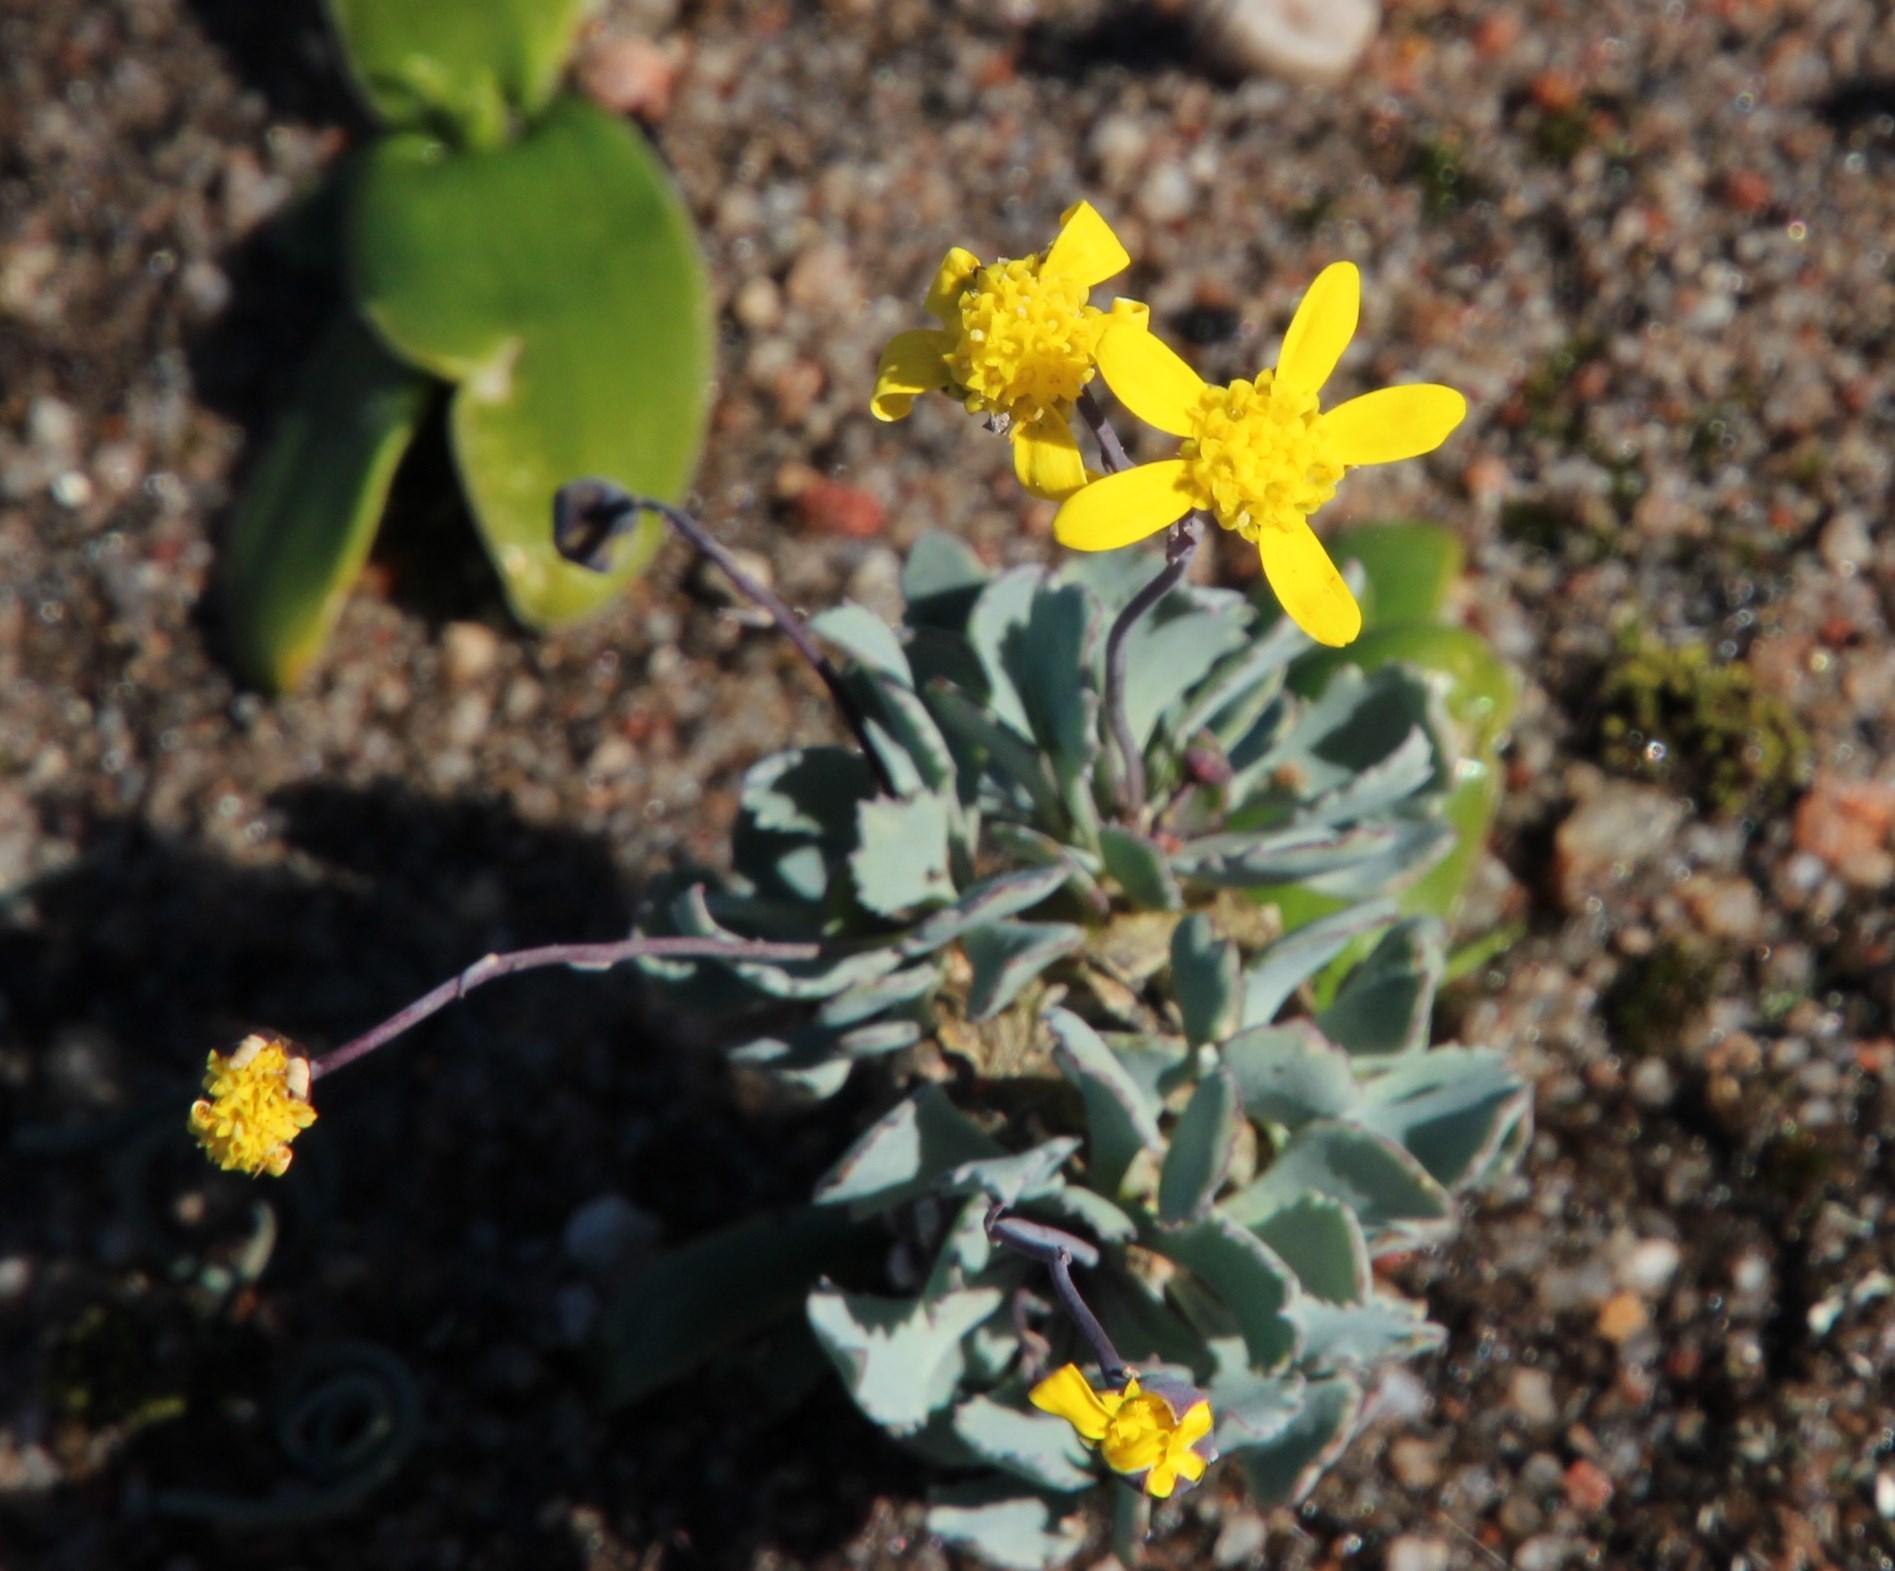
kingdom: Plantae
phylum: Tracheophyta
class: Magnoliopsida
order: Asterales
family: Asteraceae
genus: Crassothonna
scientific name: Crassothonna cacalioides
